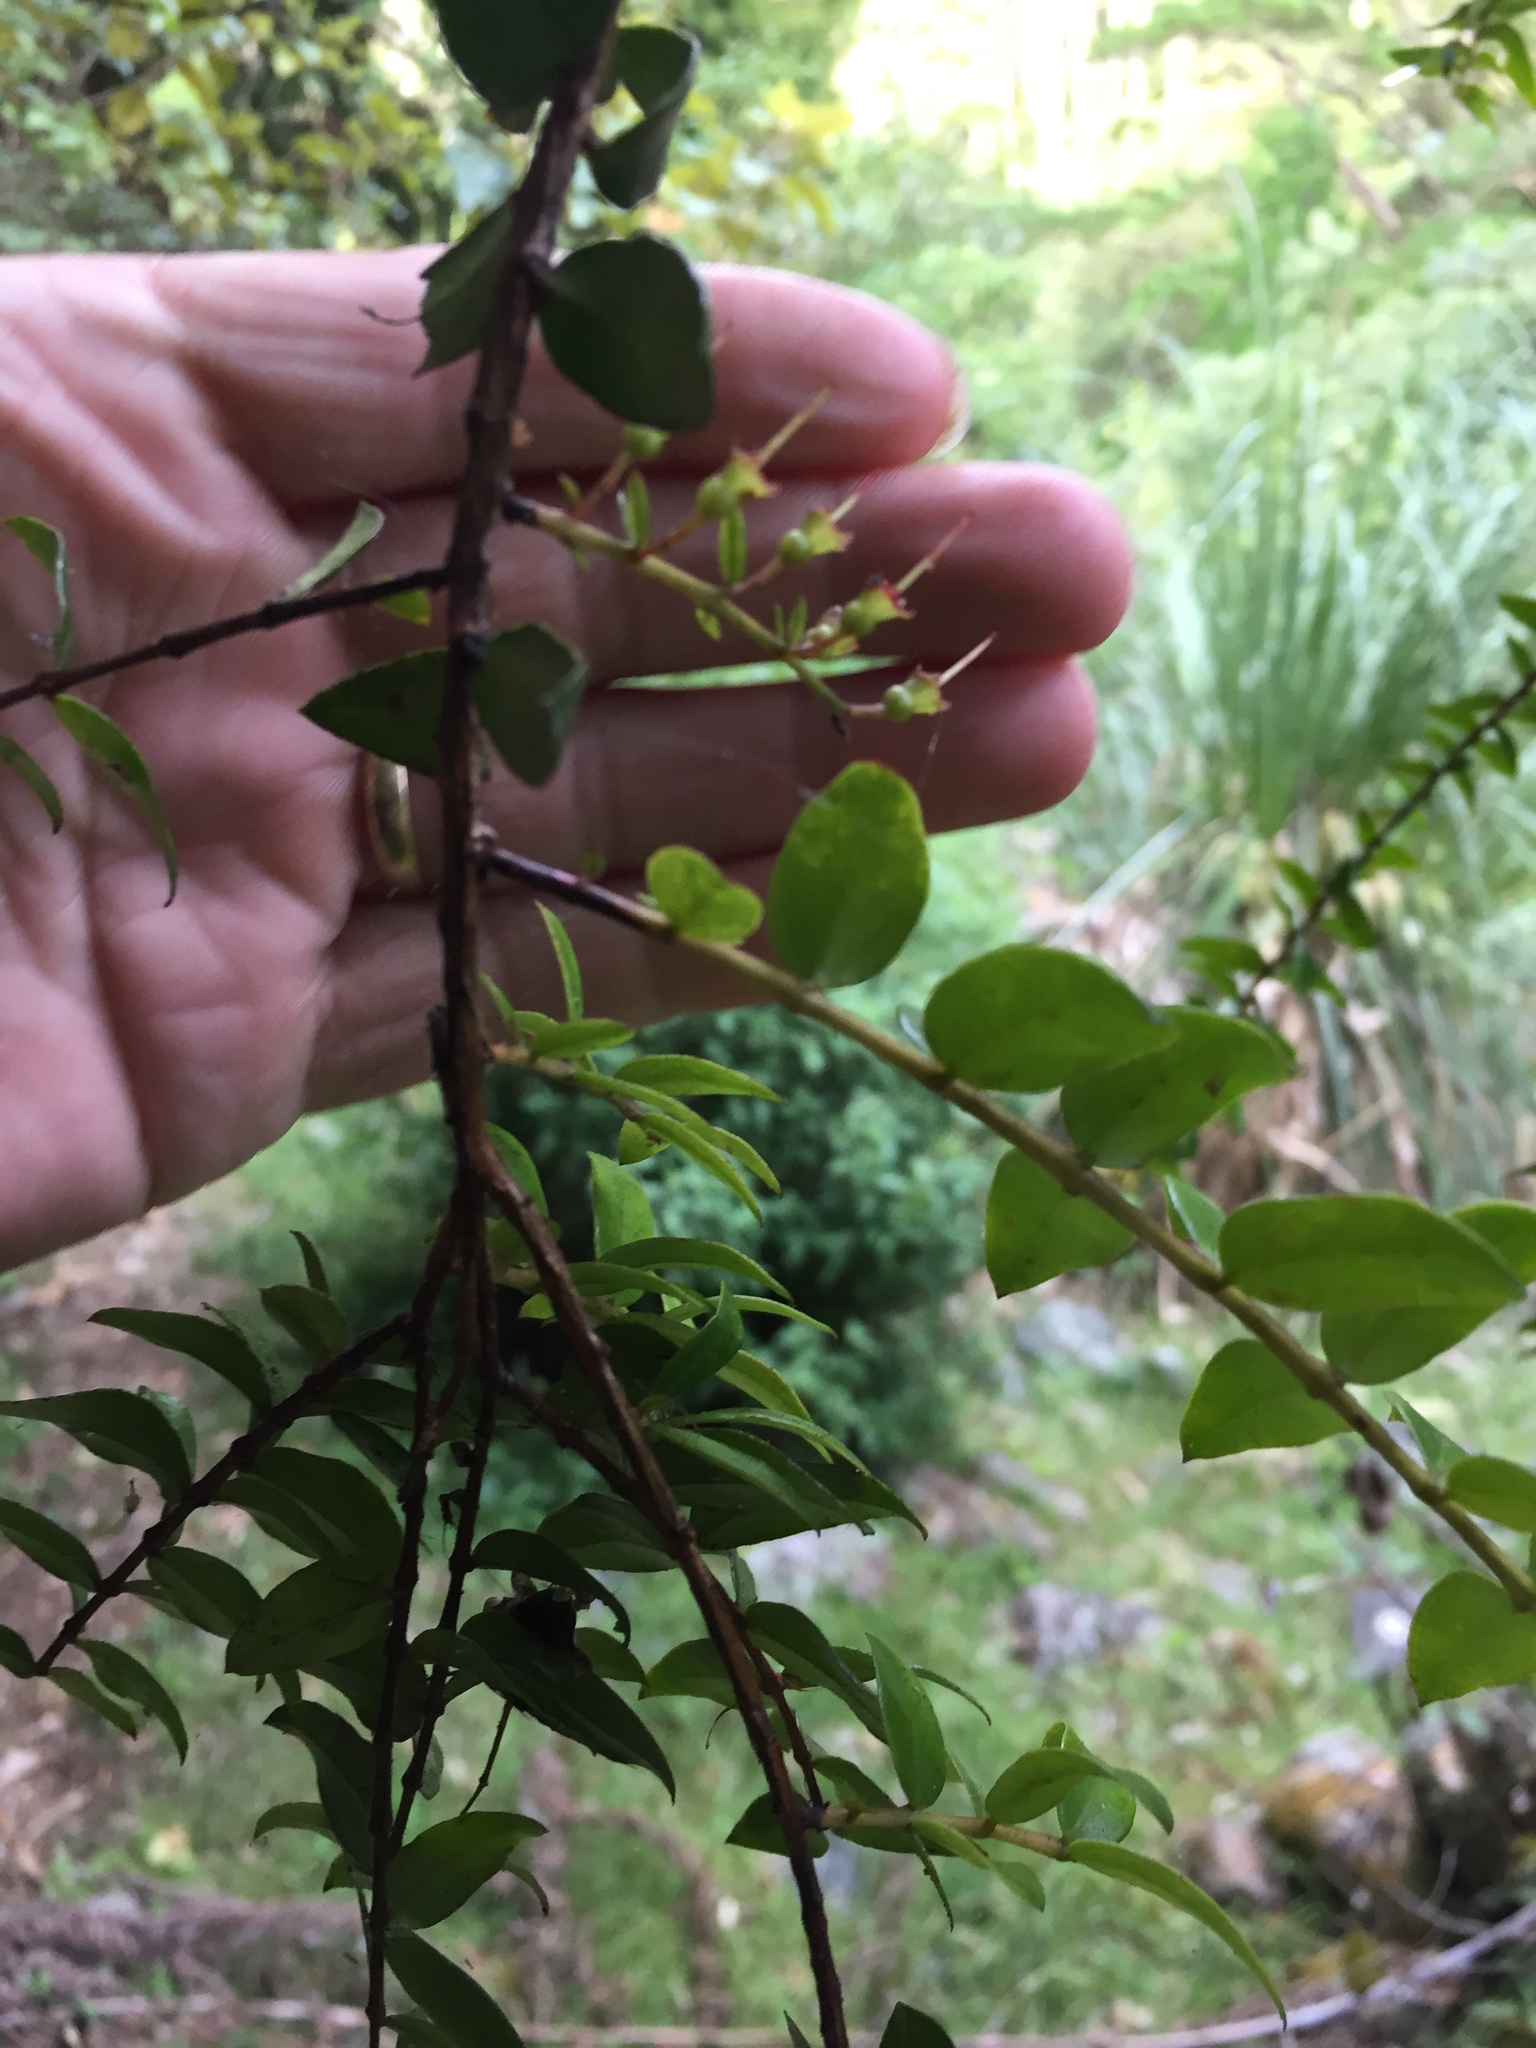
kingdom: Plantae
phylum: Tracheophyta
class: Magnoliopsida
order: Myrtales
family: Myrtaceae
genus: Metrosideros
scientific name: Metrosideros diffusa
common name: Small ratavine
